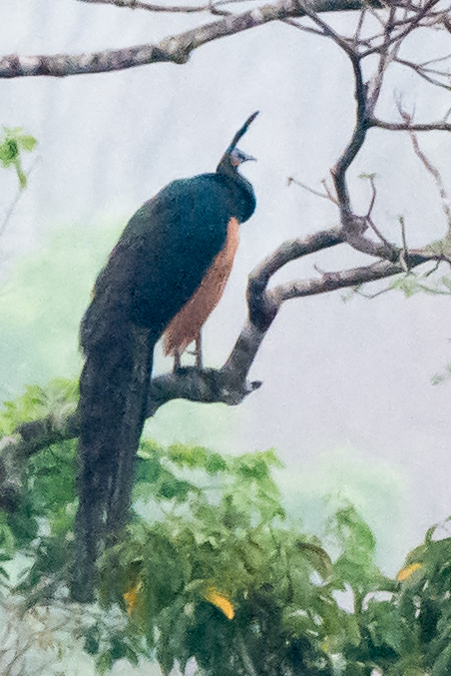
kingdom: Animalia
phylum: Chordata
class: Aves
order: Galliformes
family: Phasianidae
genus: Pavo
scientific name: Pavo muticus
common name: Green peafowl
